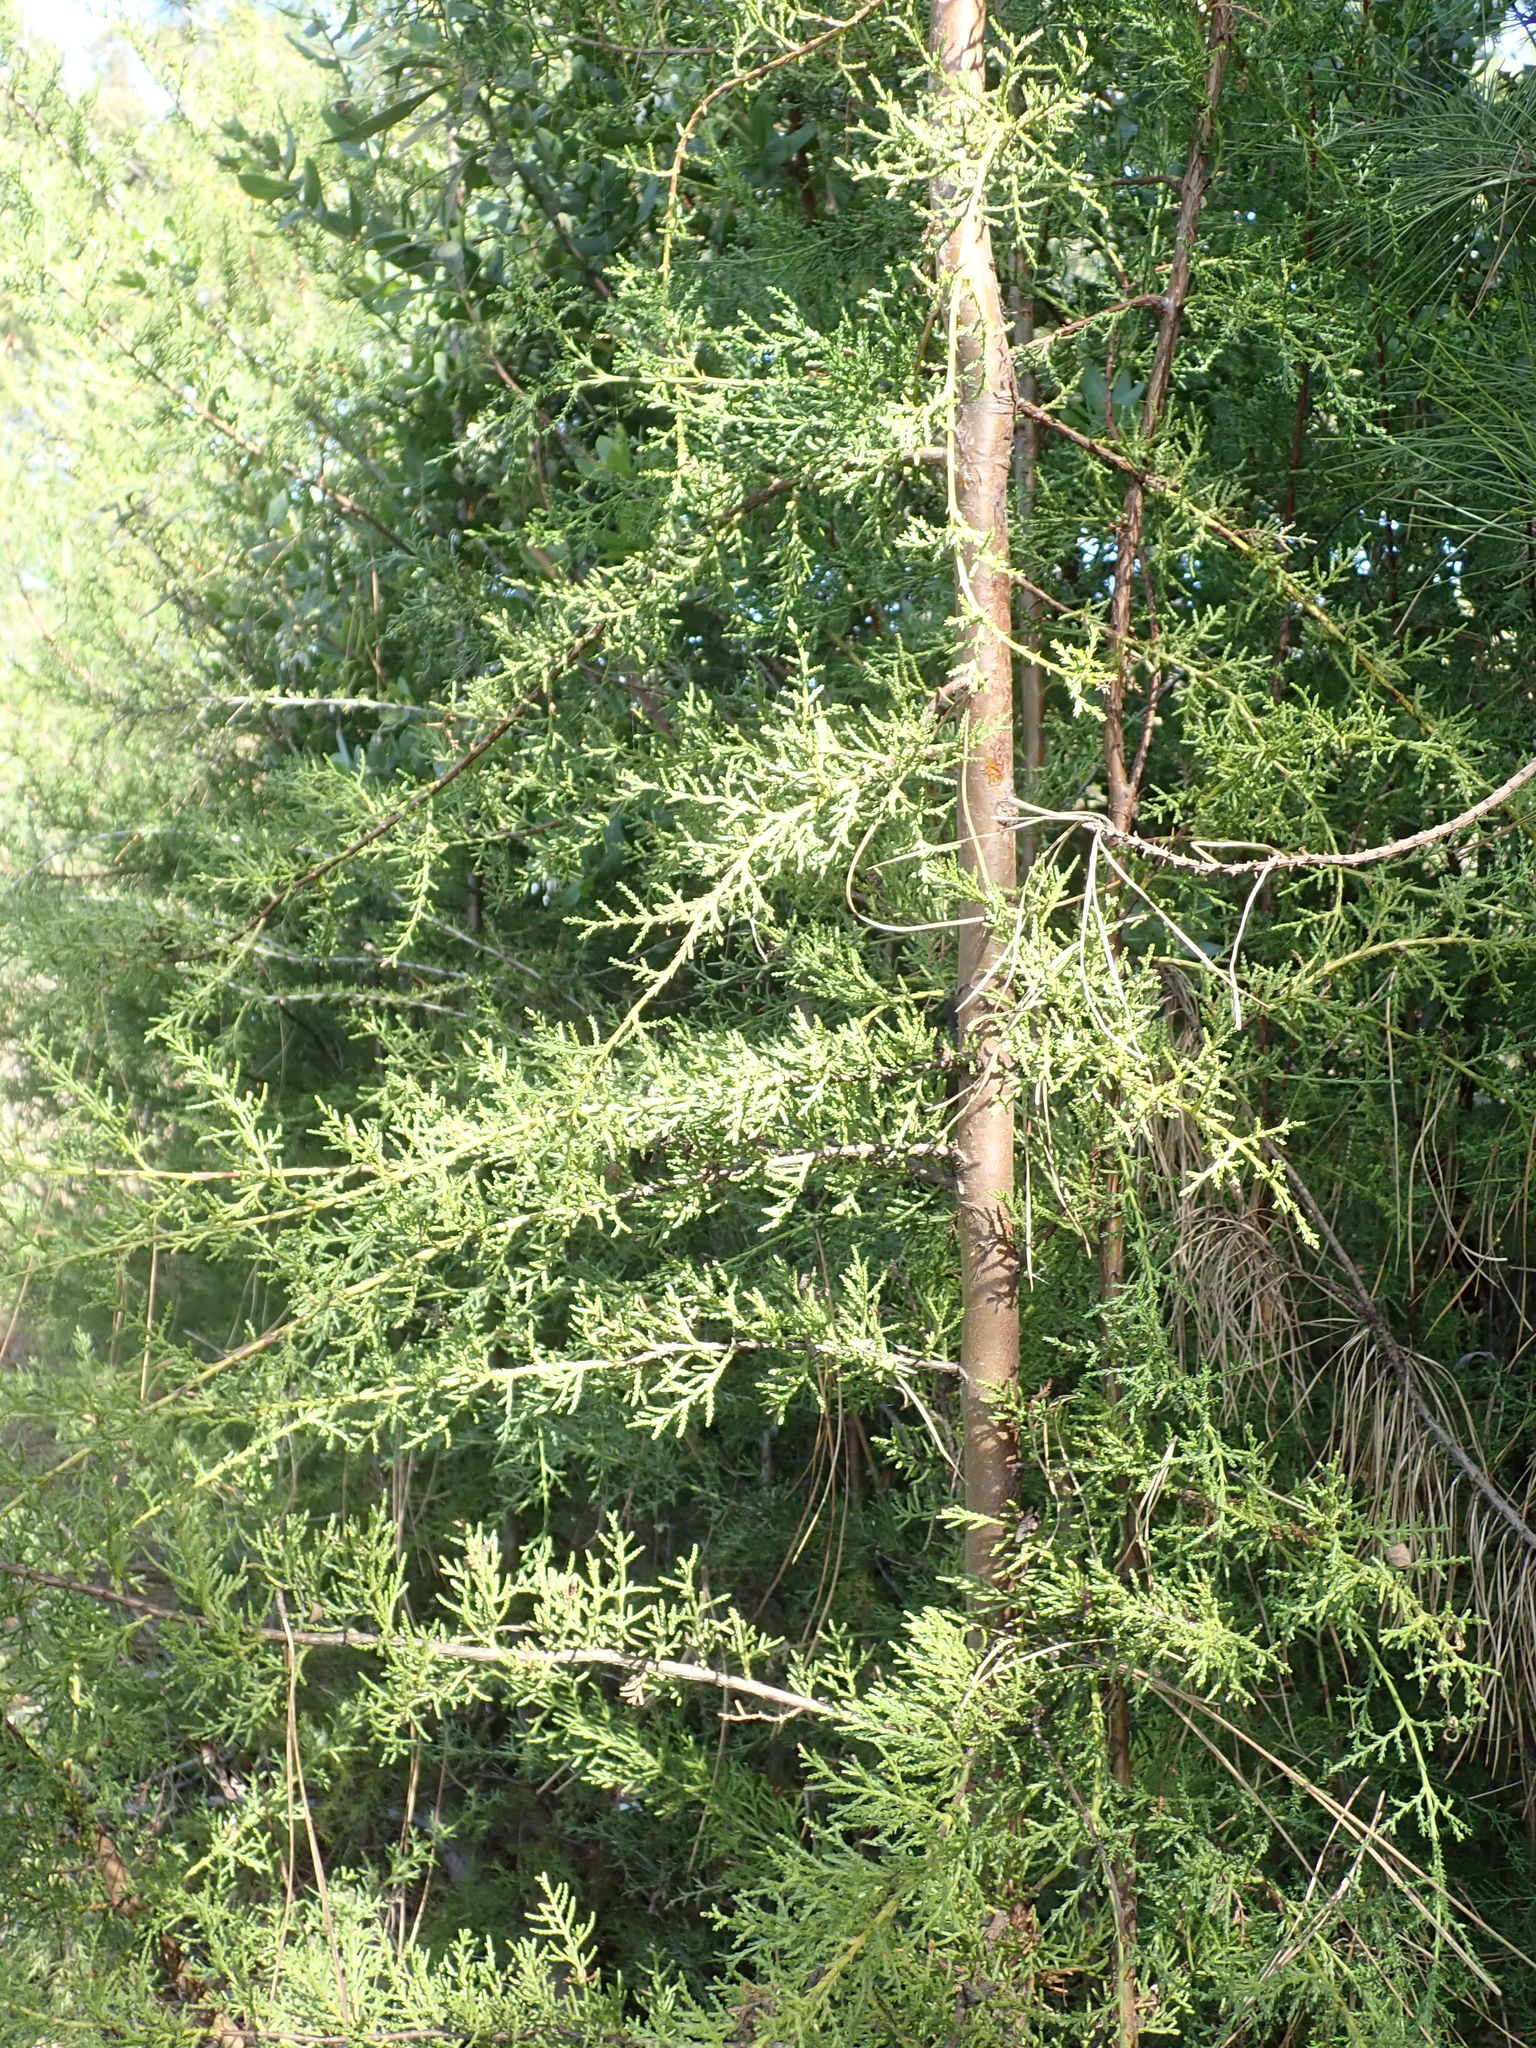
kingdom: Plantae
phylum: Tracheophyta
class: Pinopsida
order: Pinales
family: Cupressaceae
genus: Cupressus
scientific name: Cupressus goveniana
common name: Gowen cypress
